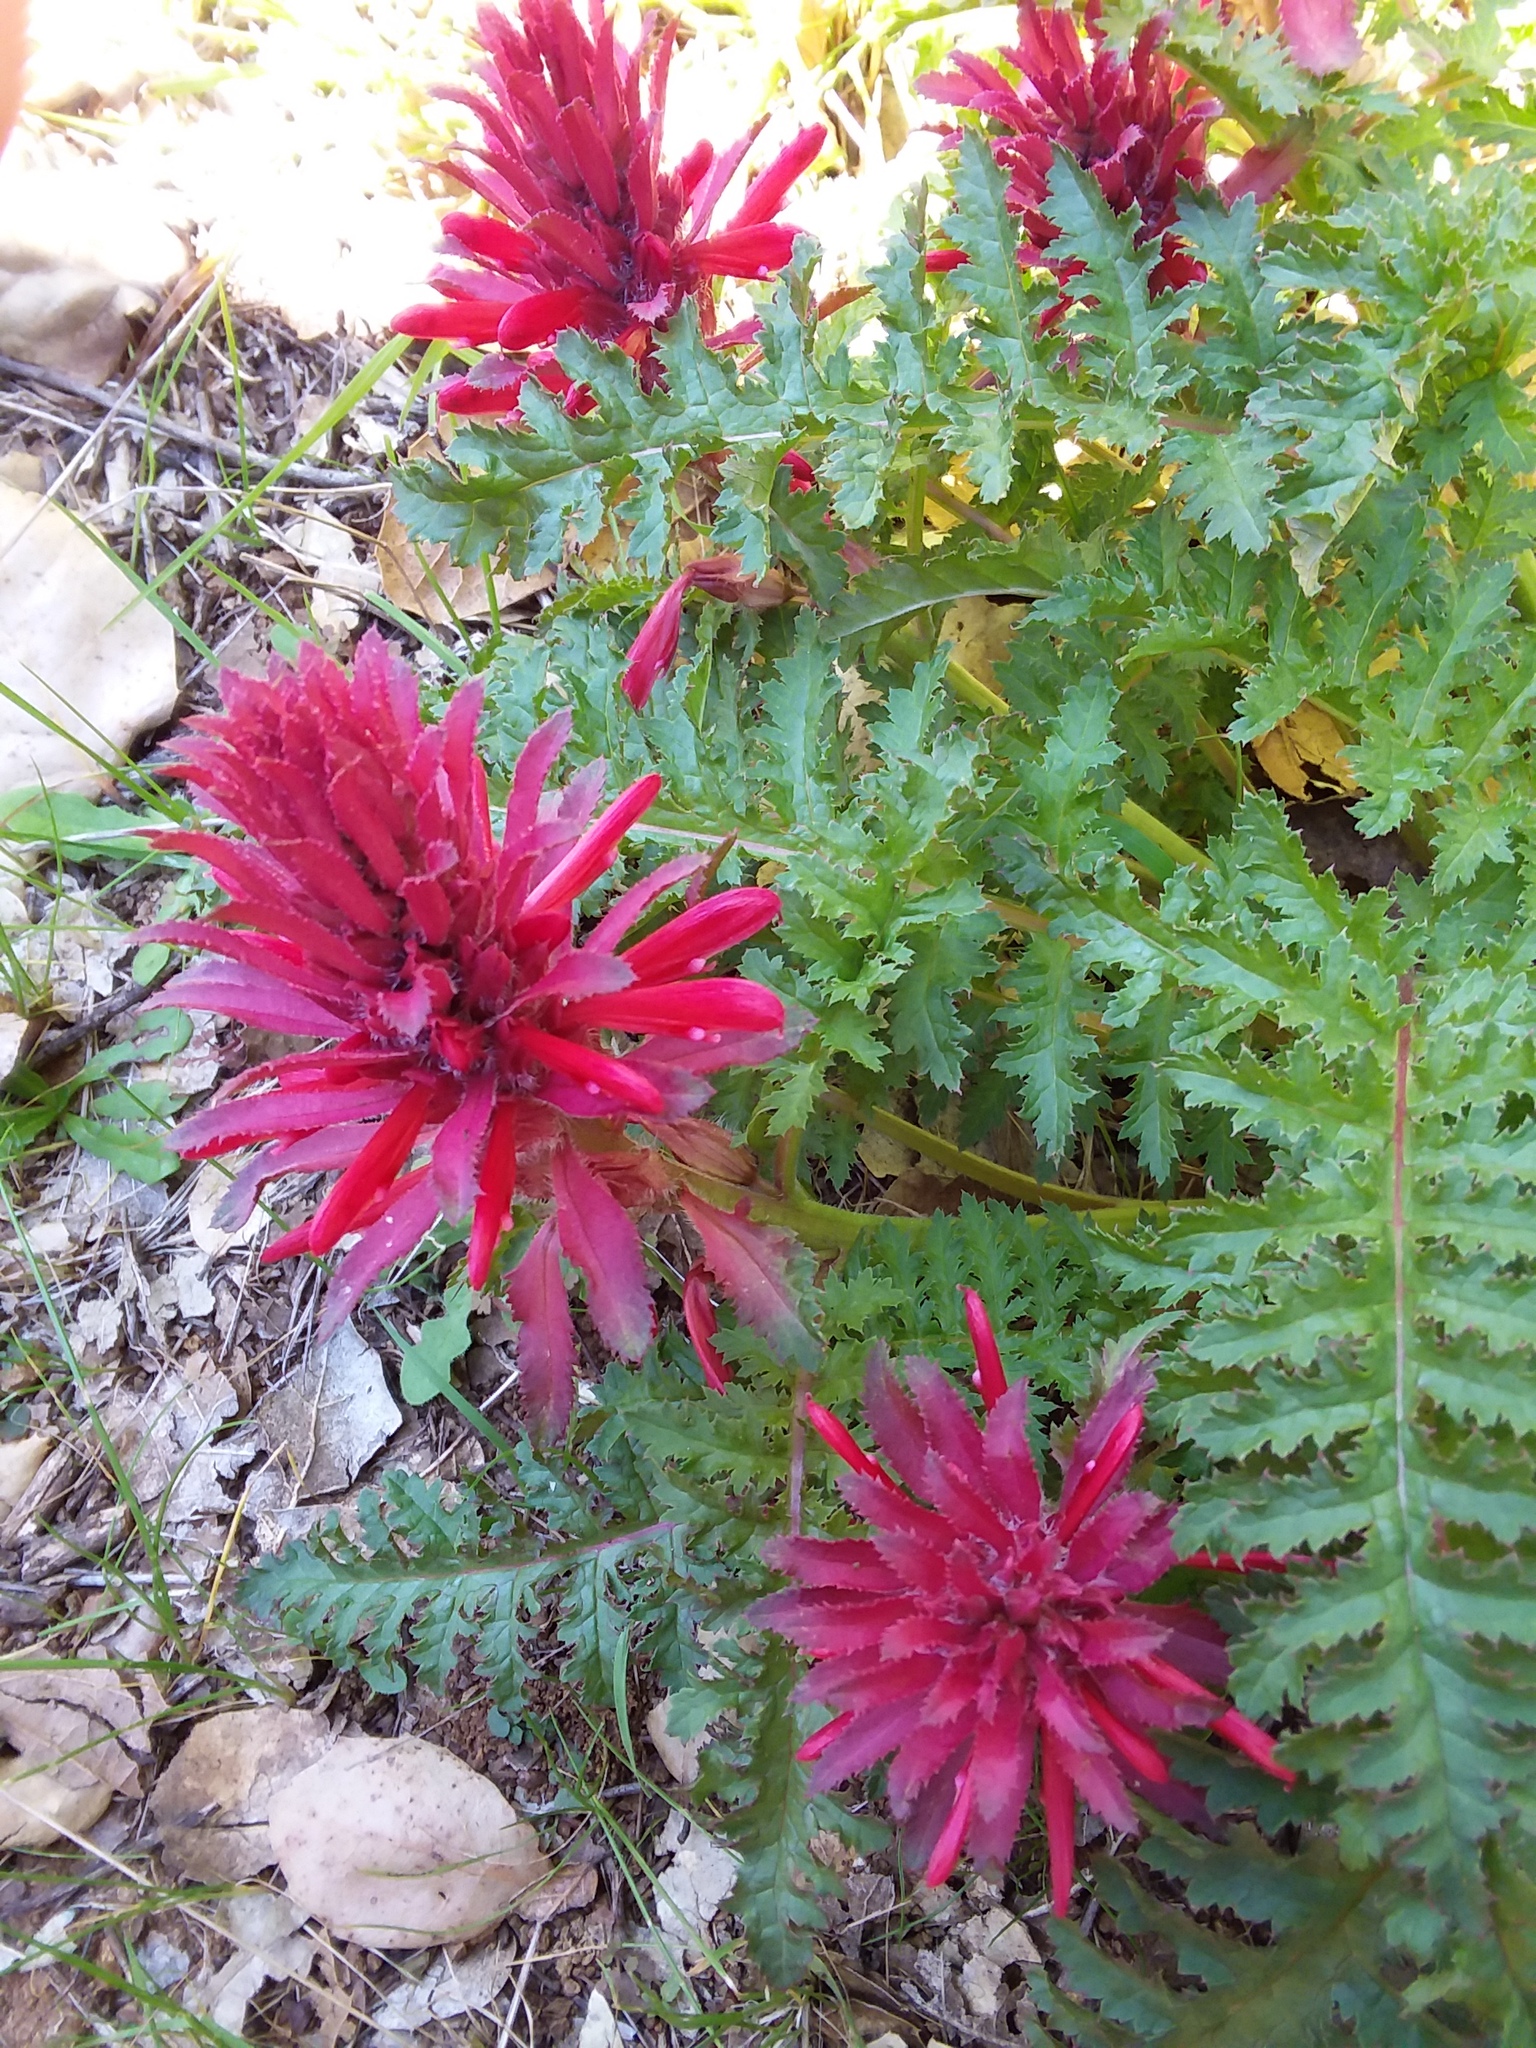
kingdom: Plantae
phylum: Tracheophyta
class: Magnoliopsida
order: Lamiales
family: Orobanchaceae
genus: Pedicularis
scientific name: Pedicularis densiflora
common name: Indian warrior
